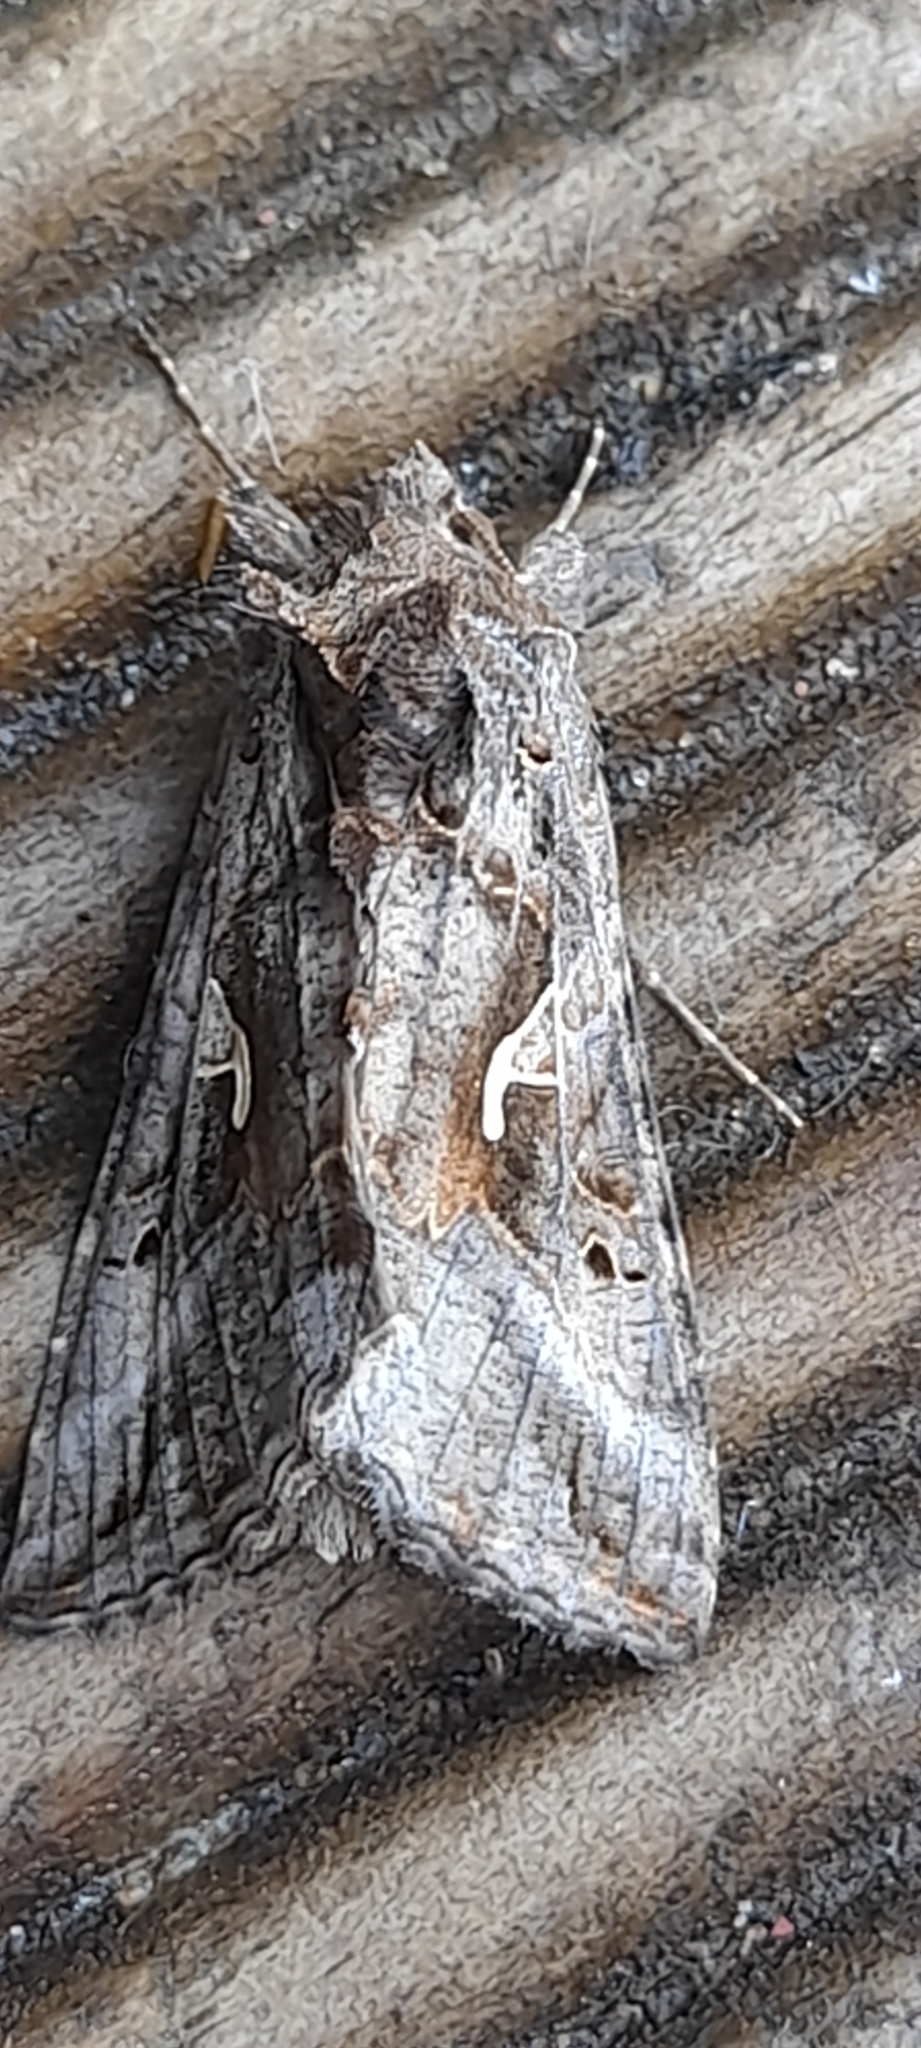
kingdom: Animalia
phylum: Arthropoda
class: Insecta
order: Lepidoptera
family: Noctuidae
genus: Autographa
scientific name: Autographa gamma
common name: Silver y
